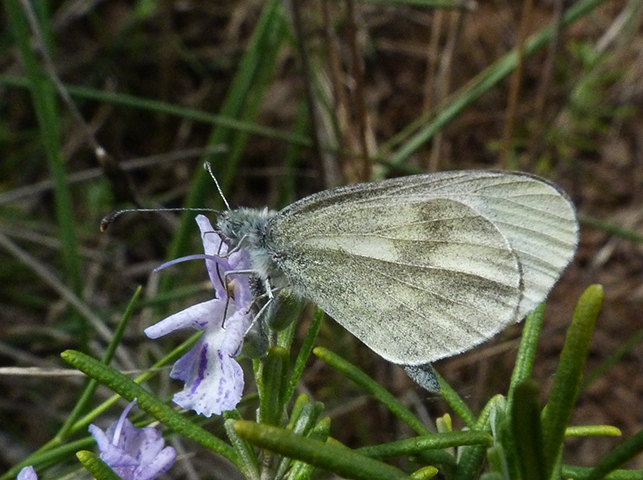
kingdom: Animalia
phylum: Arthropoda
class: Insecta
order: Lepidoptera
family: Pieridae
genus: Leptidea
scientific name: Leptidea sinapis
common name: Wood white
